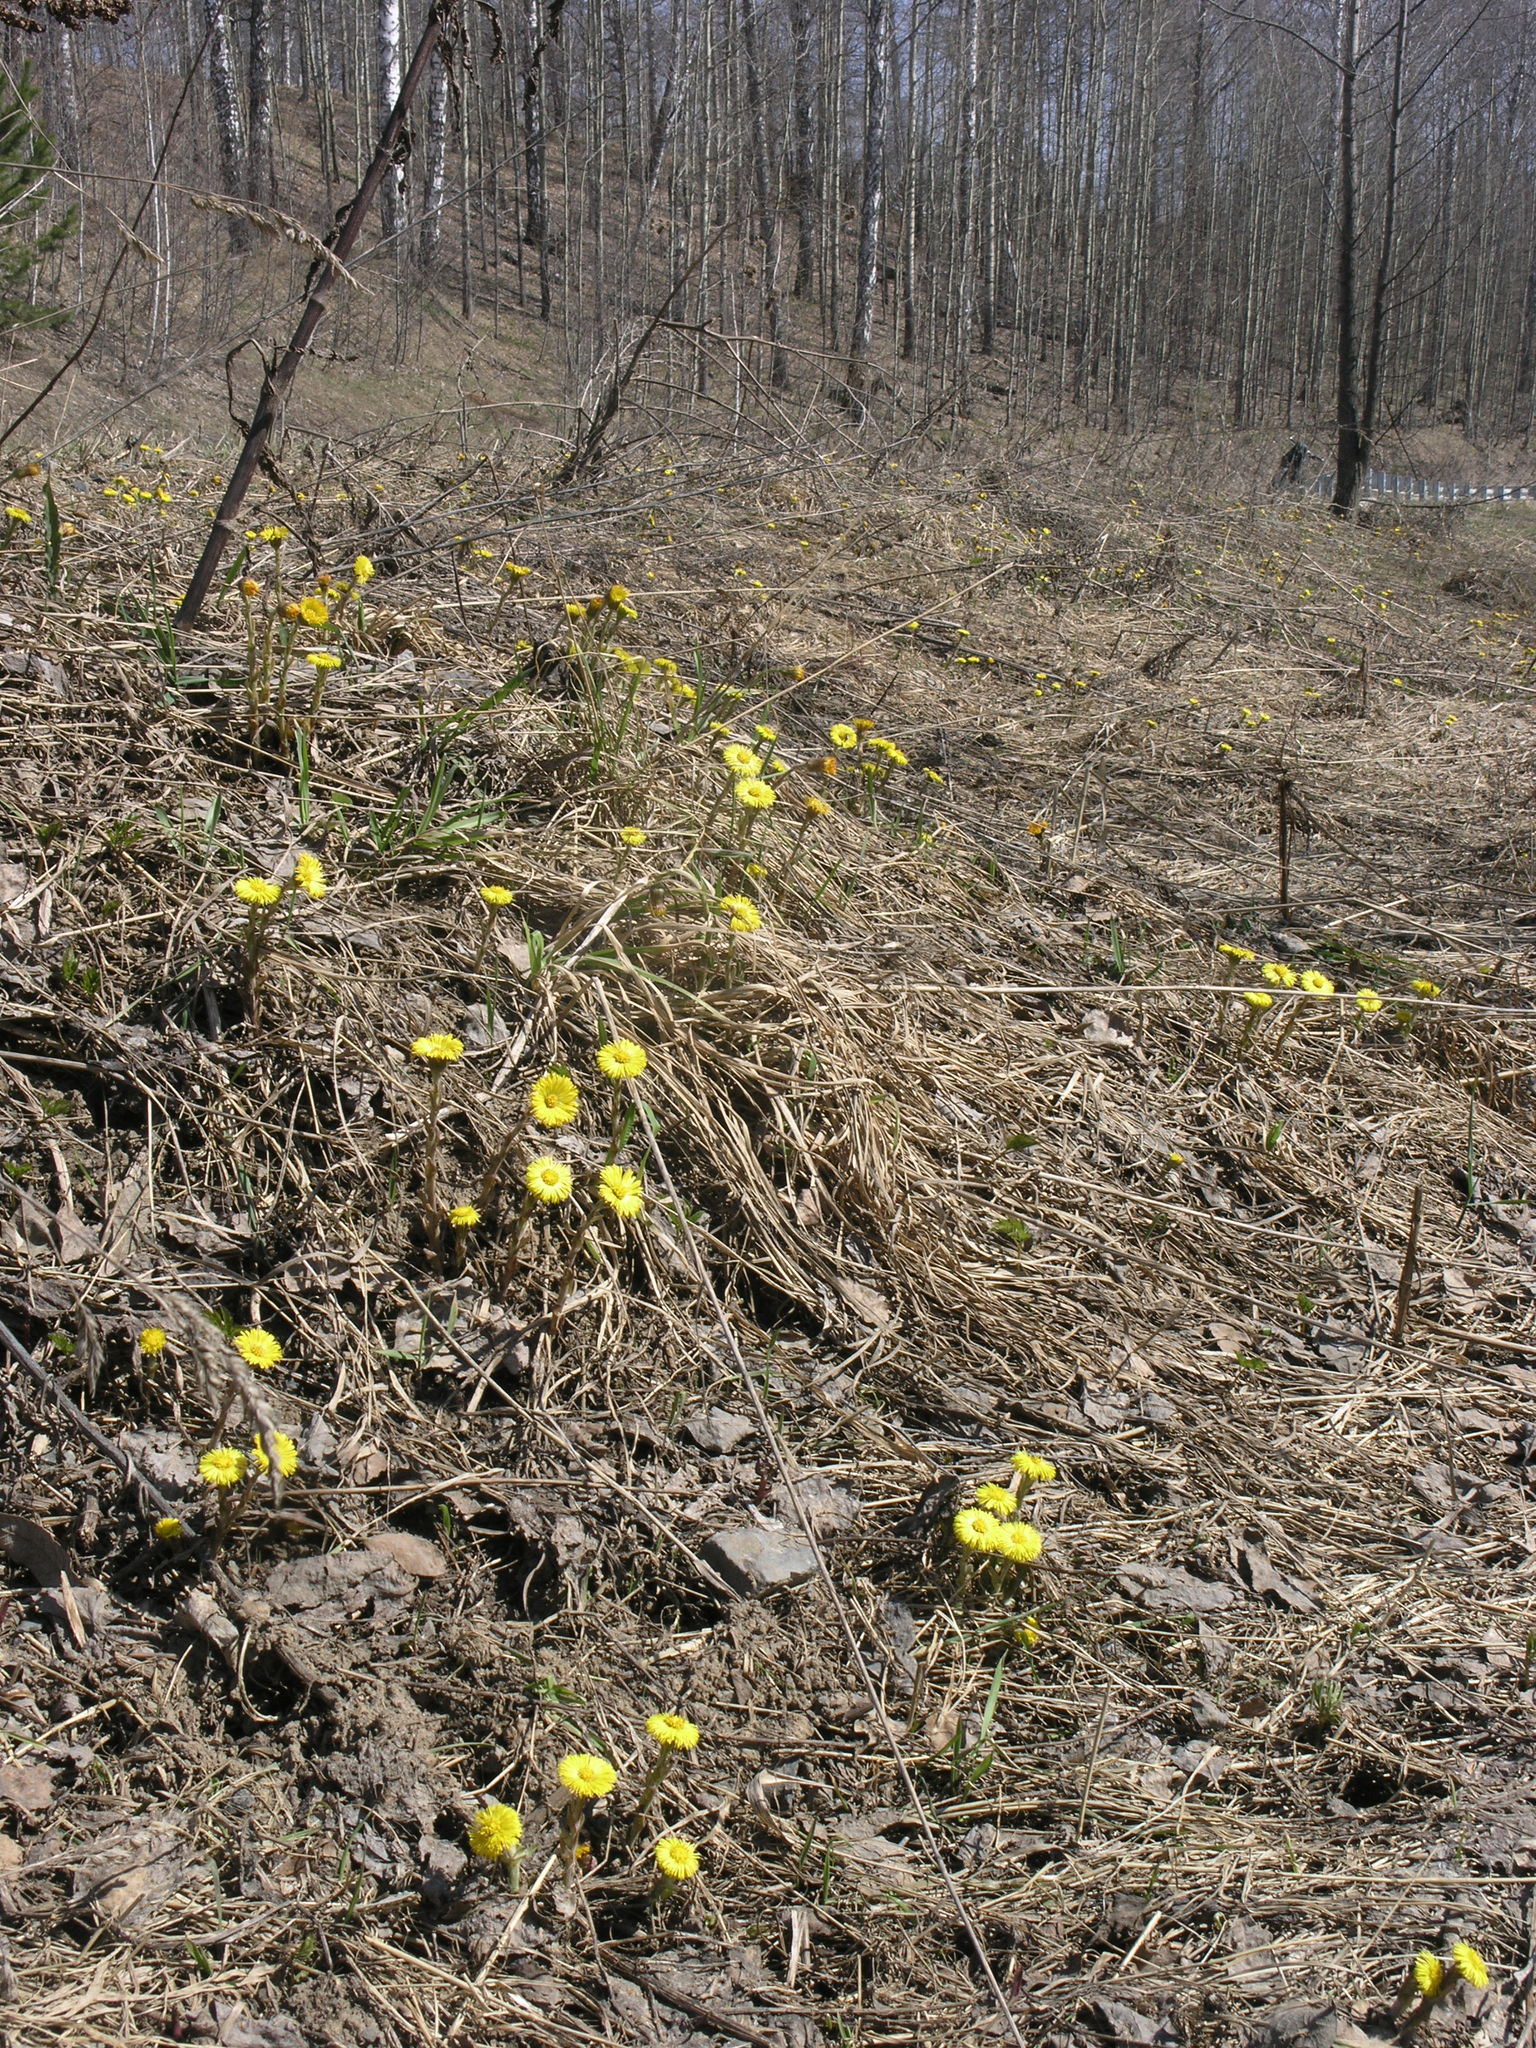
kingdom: Plantae
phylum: Tracheophyta
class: Magnoliopsida
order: Asterales
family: Asteraceae
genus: Tussilago
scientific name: Tussilago farfara
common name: Coltsfoot
